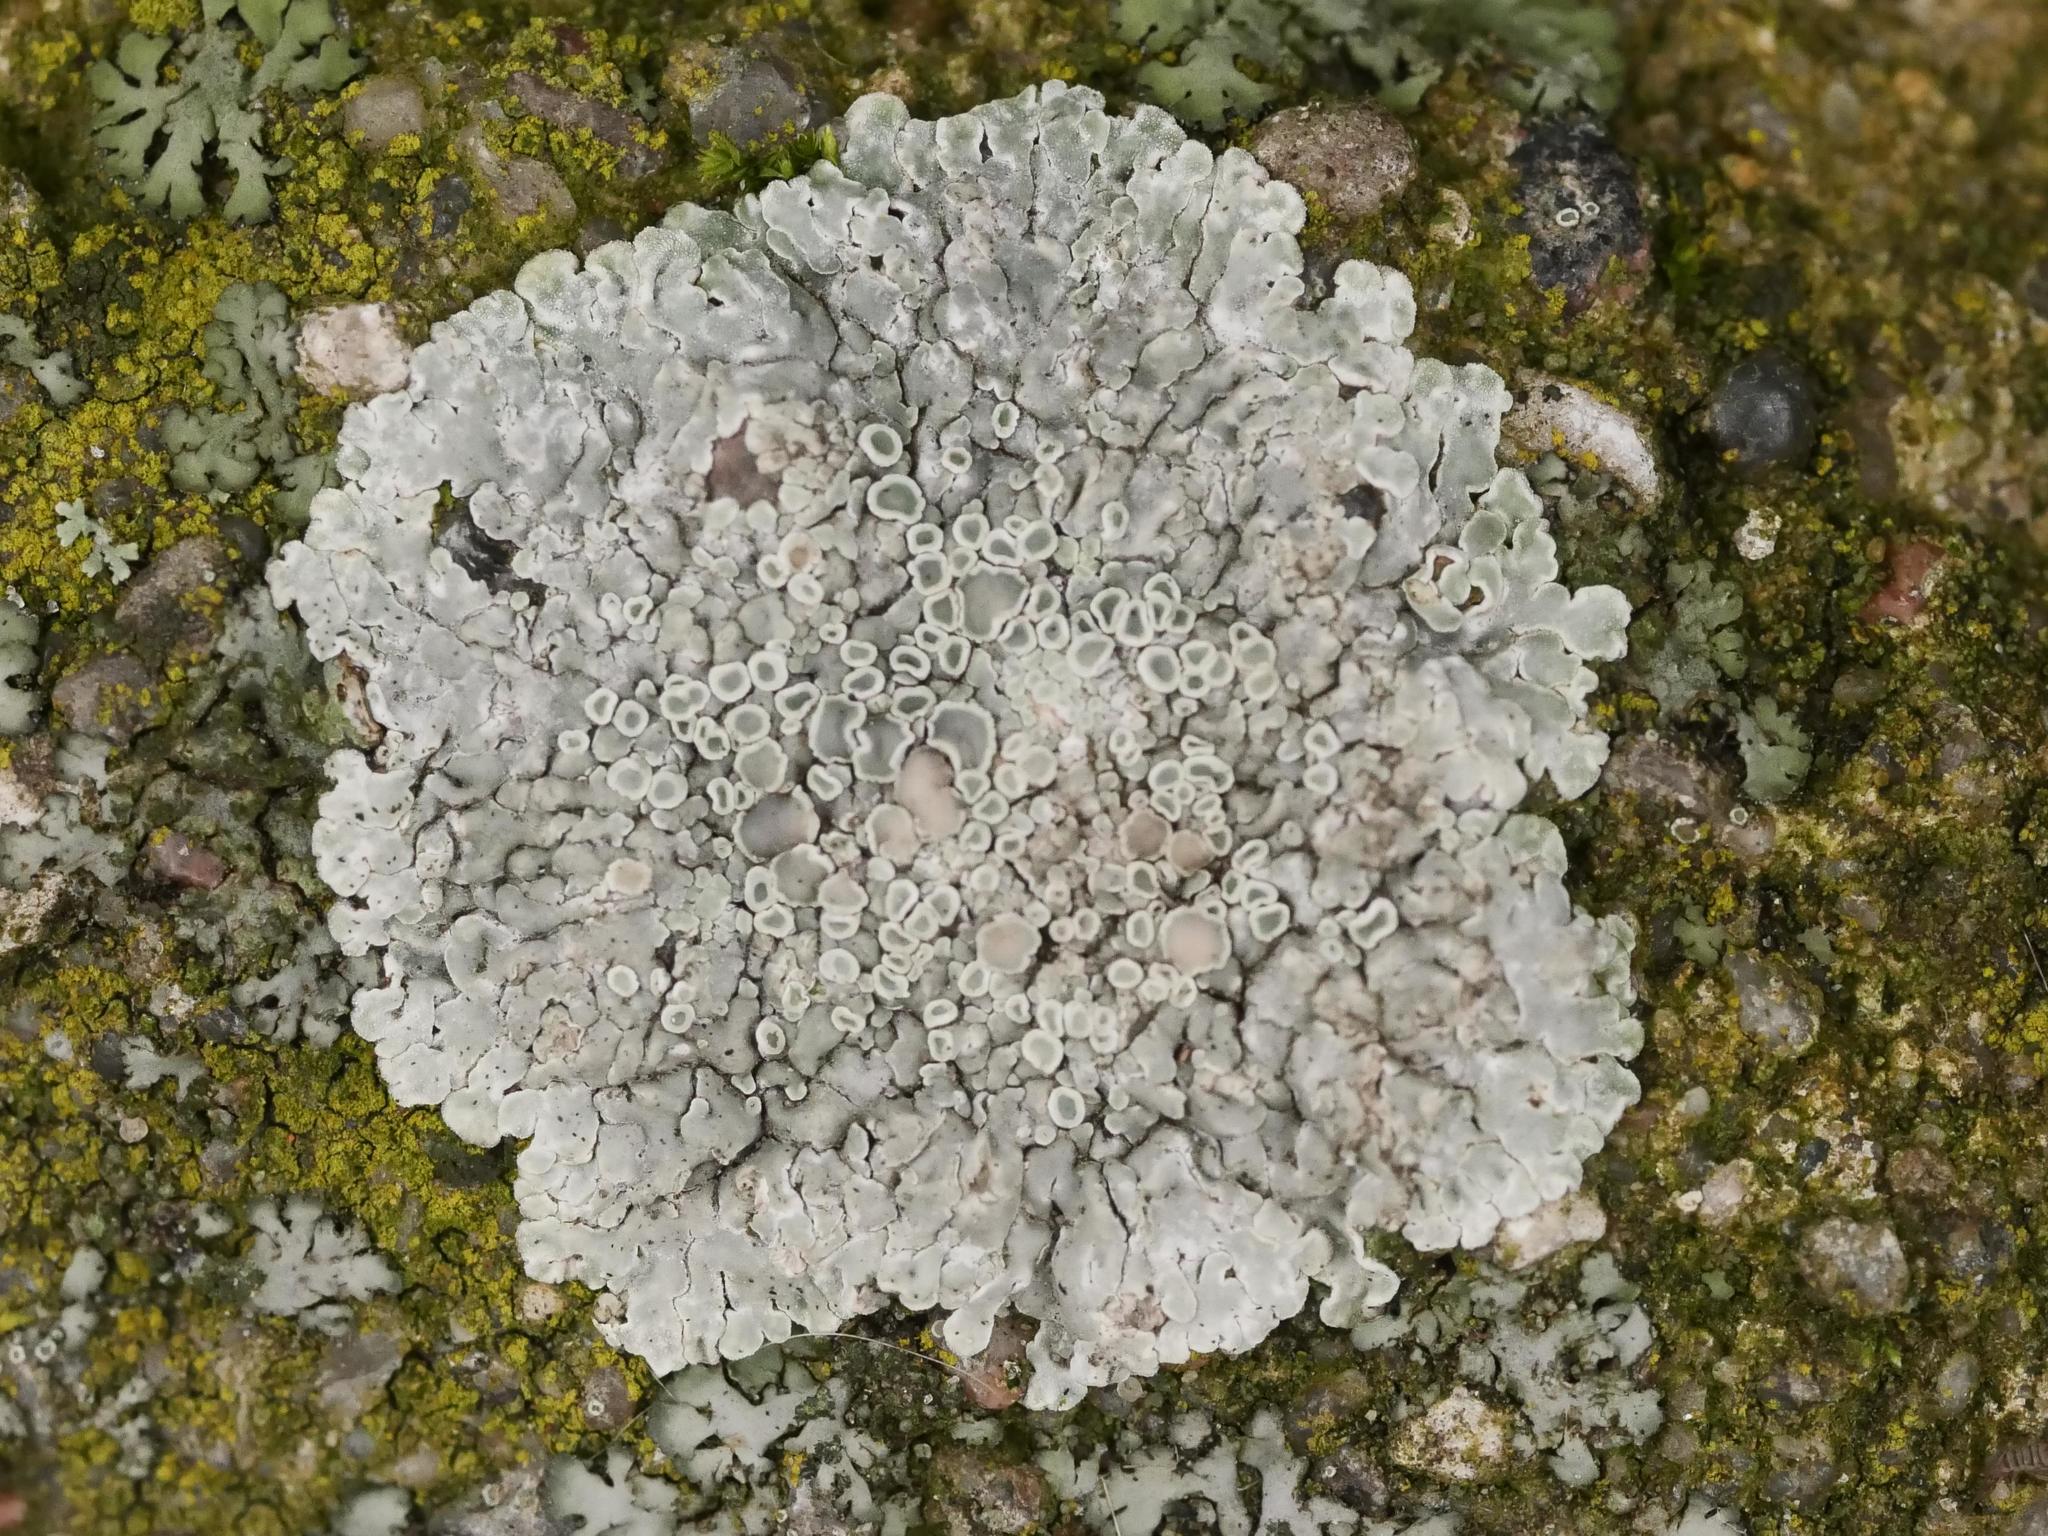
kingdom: Fungi
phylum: Ascomycota
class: Lecanoromycetes
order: Lecanorales
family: Lecanoraceae
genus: Protoparmeliopsis
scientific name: Protoparmeliopsis muralis
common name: Stonewall rim lichen
